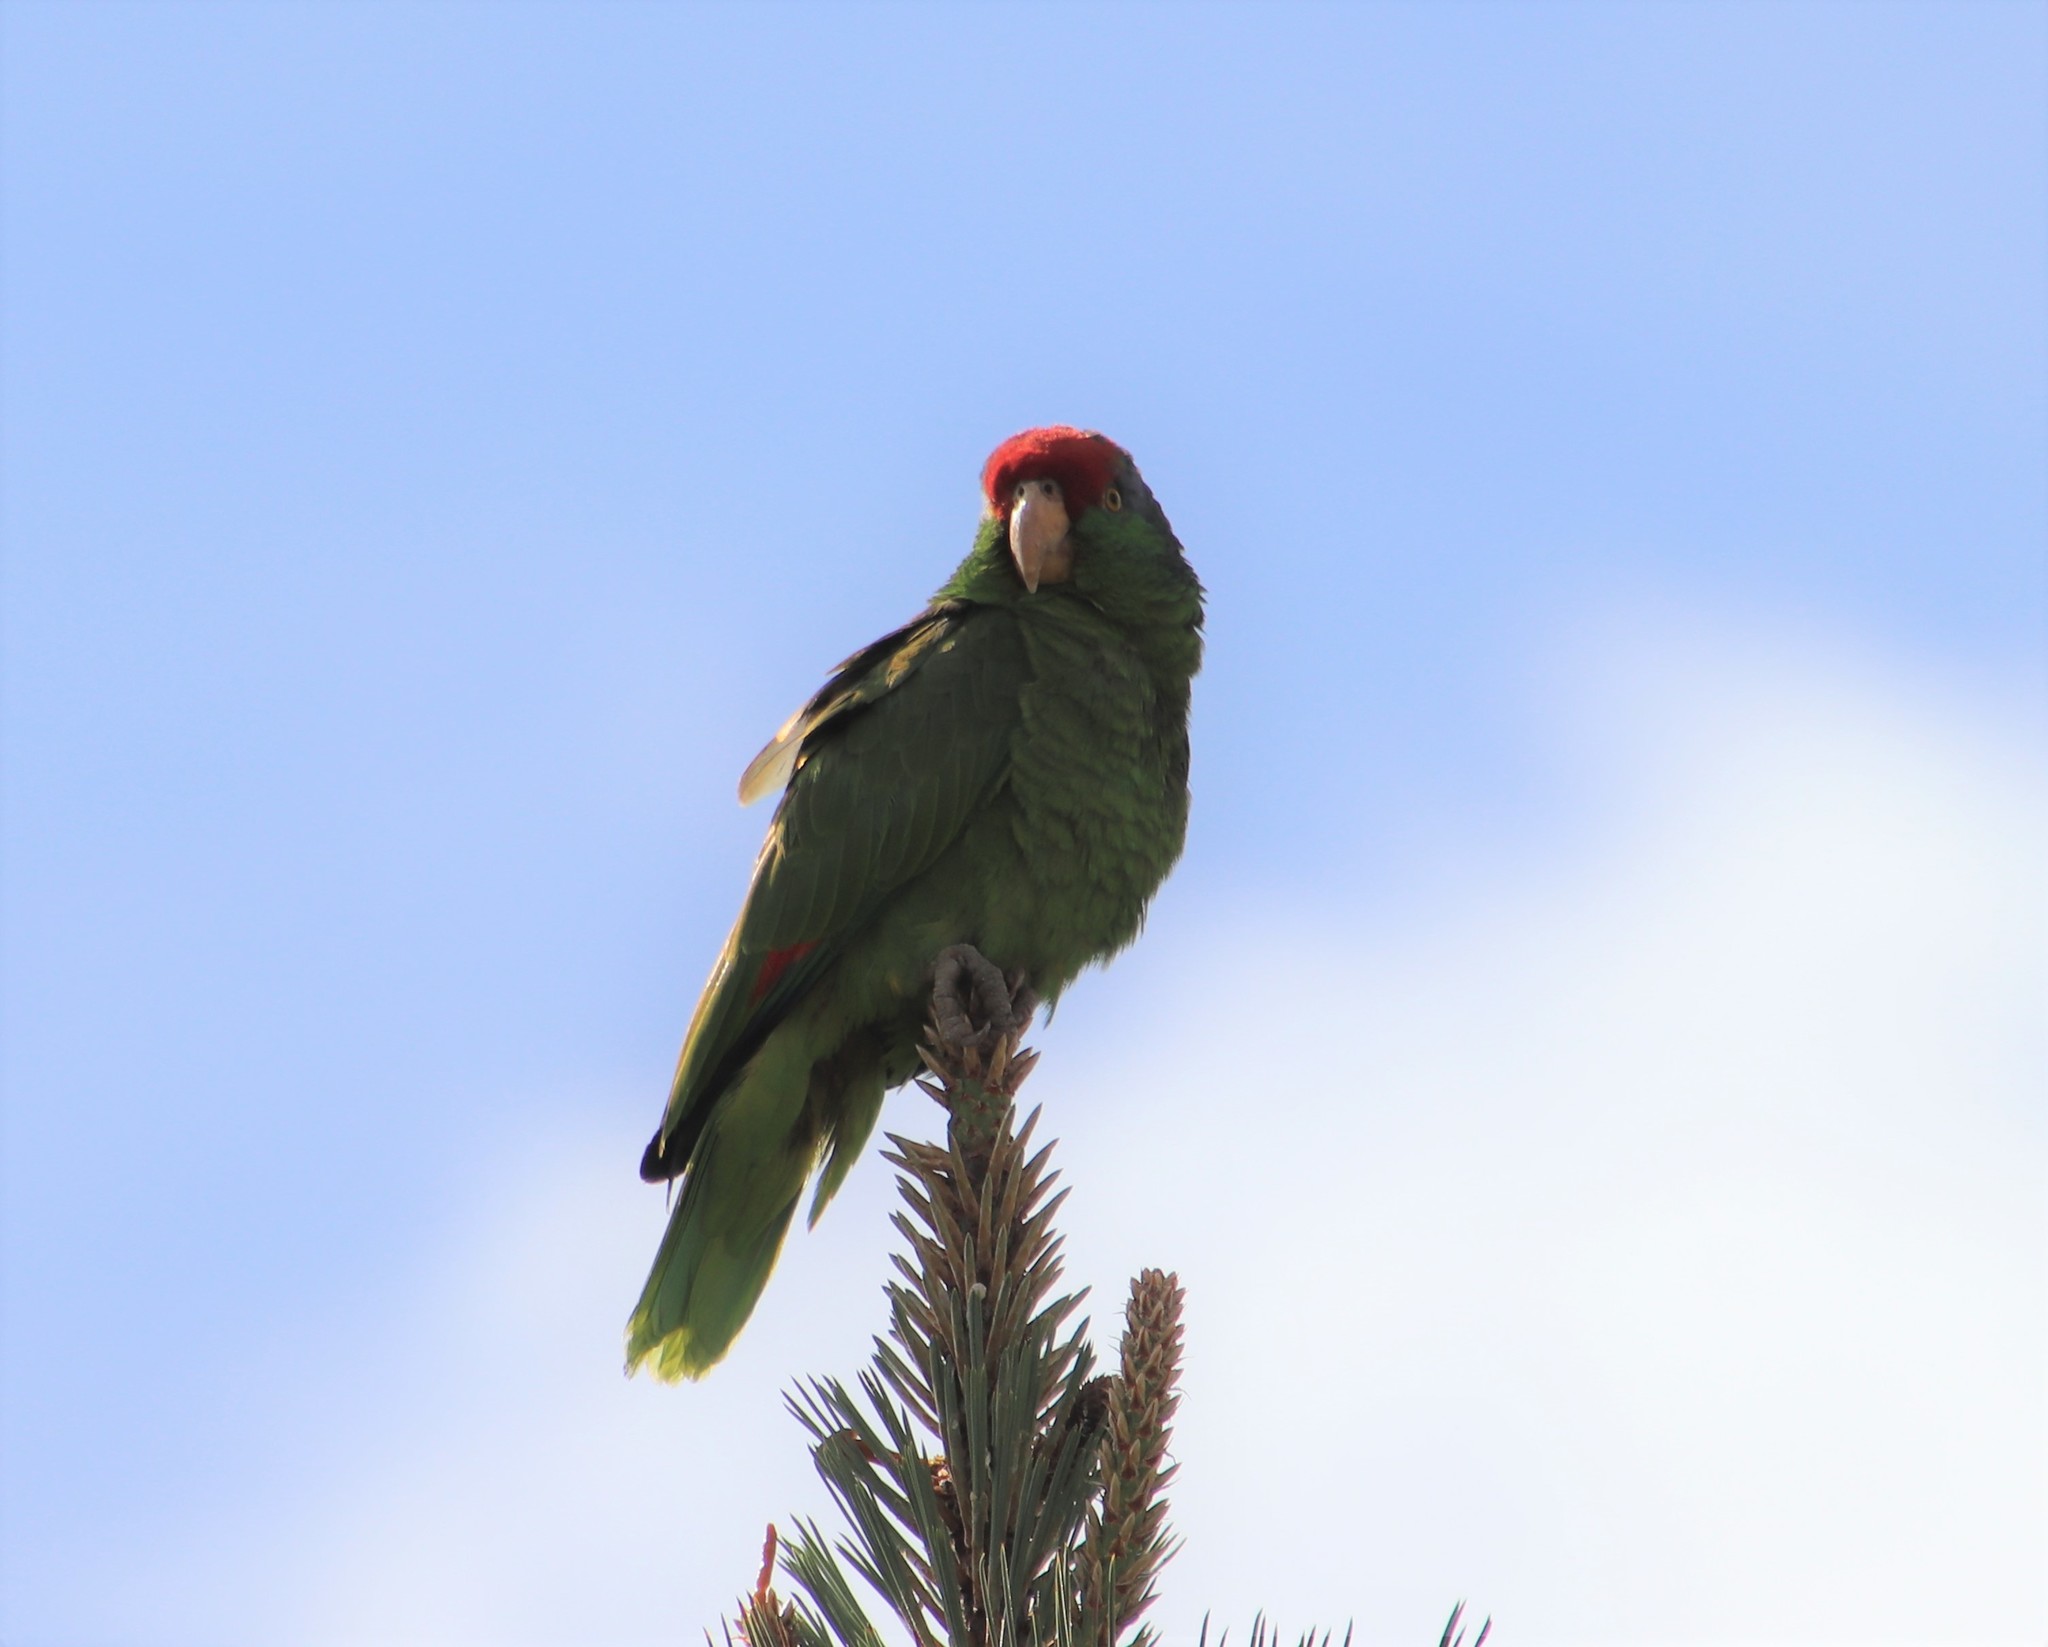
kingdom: Animalia
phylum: Chordata
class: Aves
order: Psittaciformes
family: Psittacidae
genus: Amazona
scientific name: Amazona viridigenalis
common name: Red-crowned amazon
